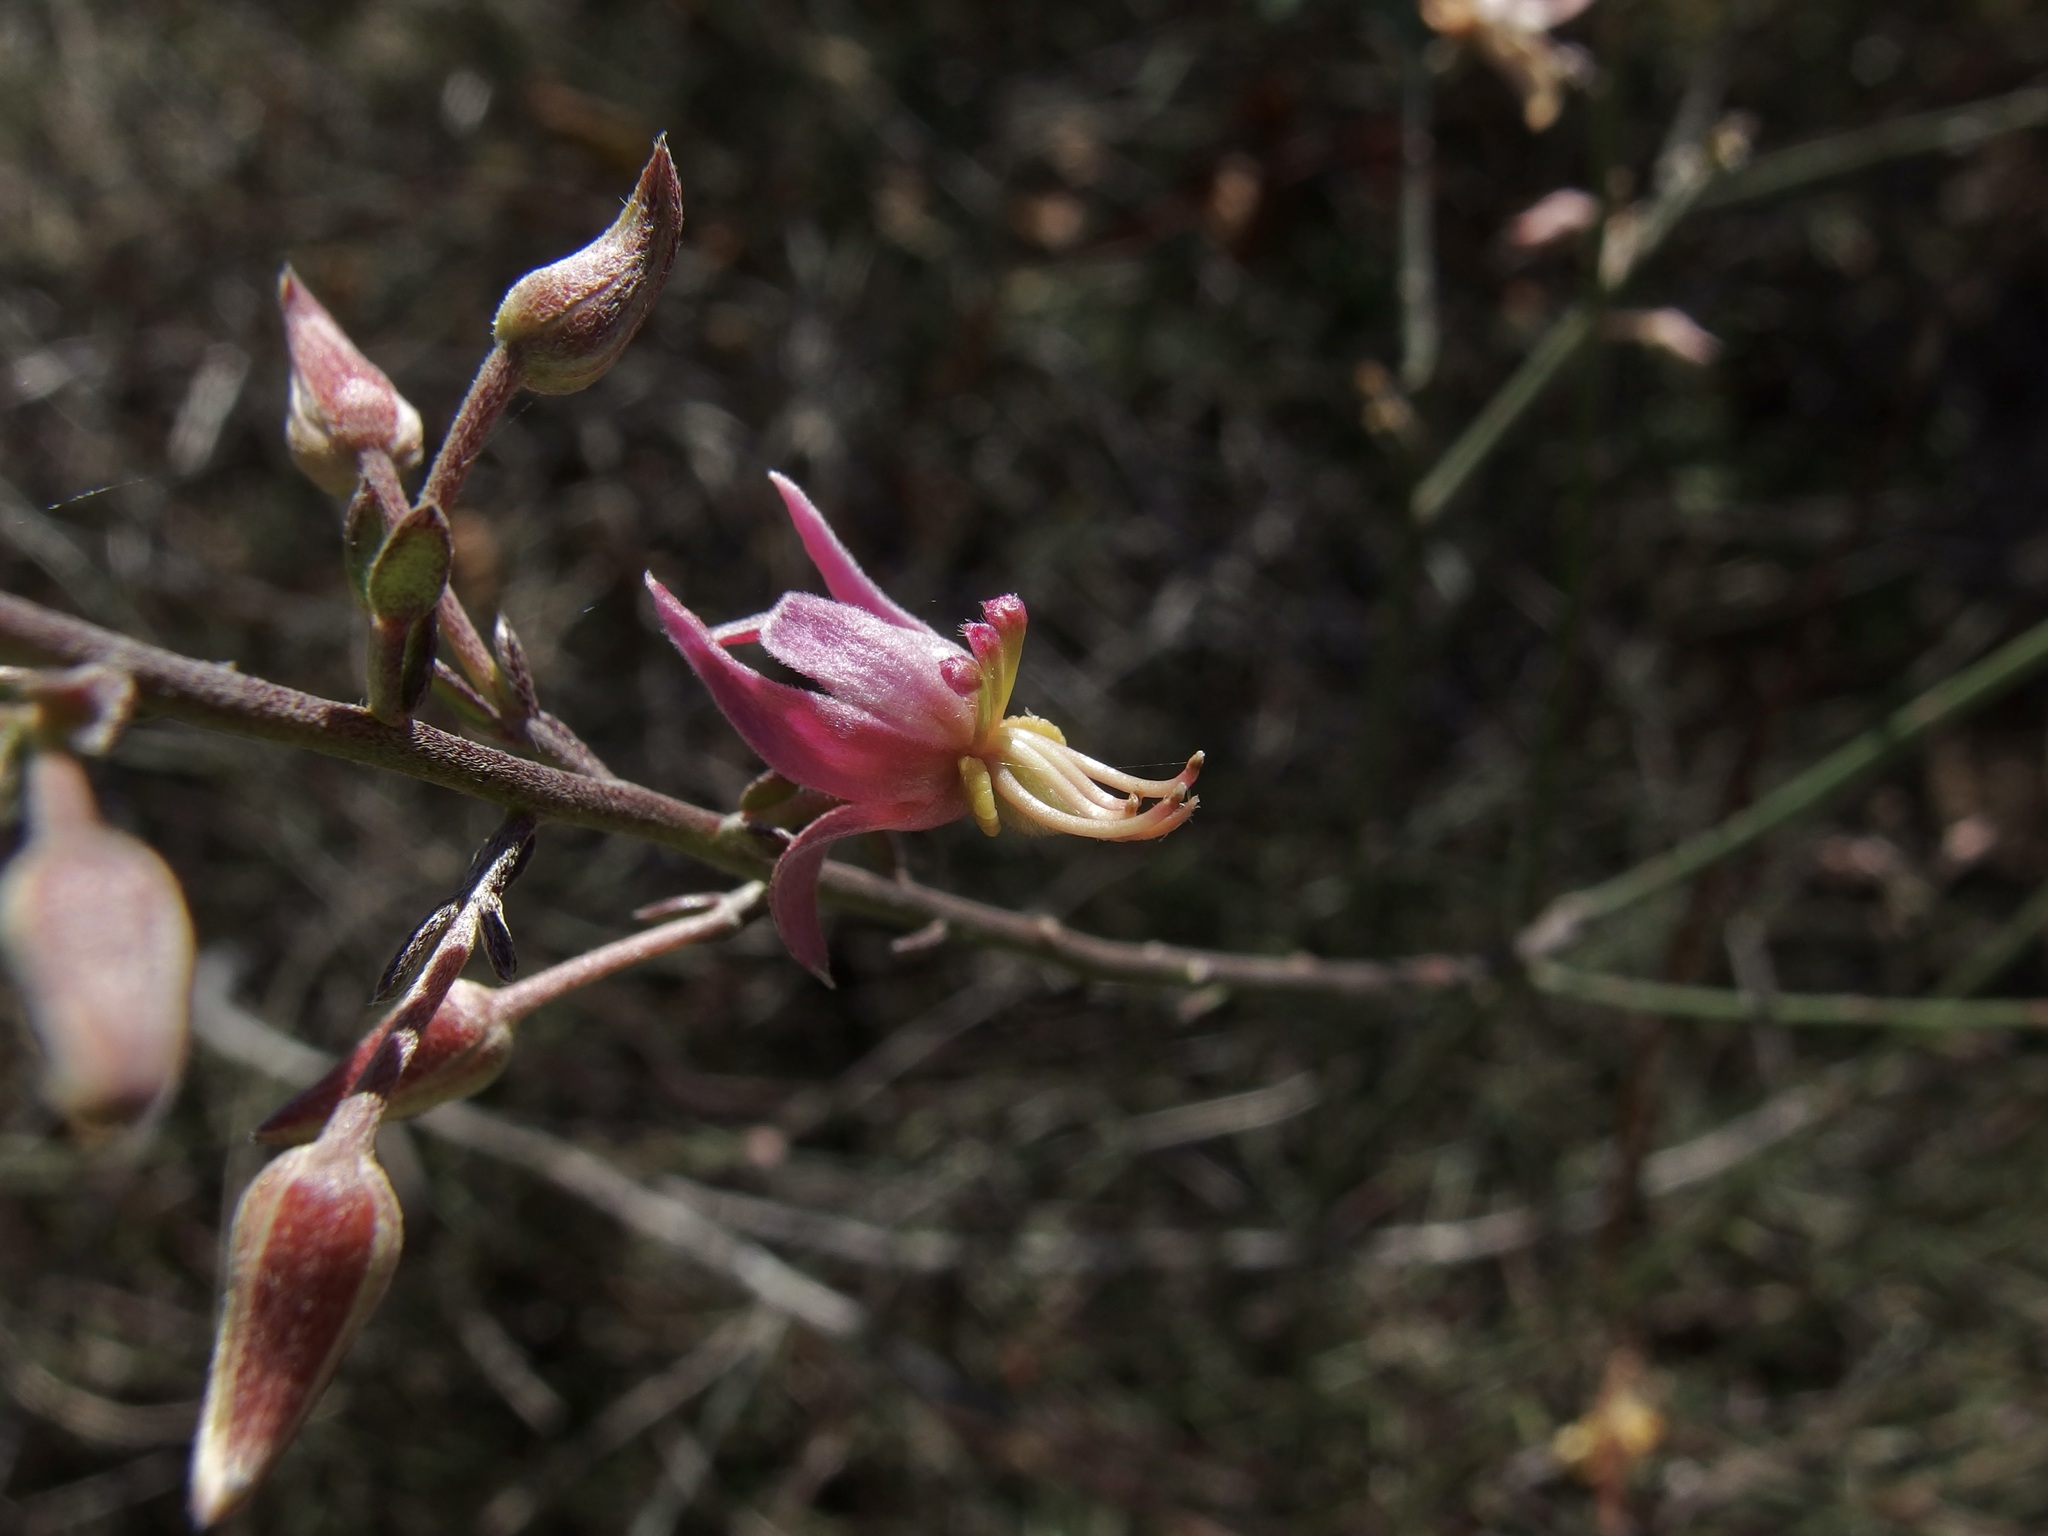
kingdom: Plantae
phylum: Tracheophyta
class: Magnoliopsida
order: Zygophyllales
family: Krameriaceae
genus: Krameria
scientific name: Krameria bicolor
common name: White ratany
